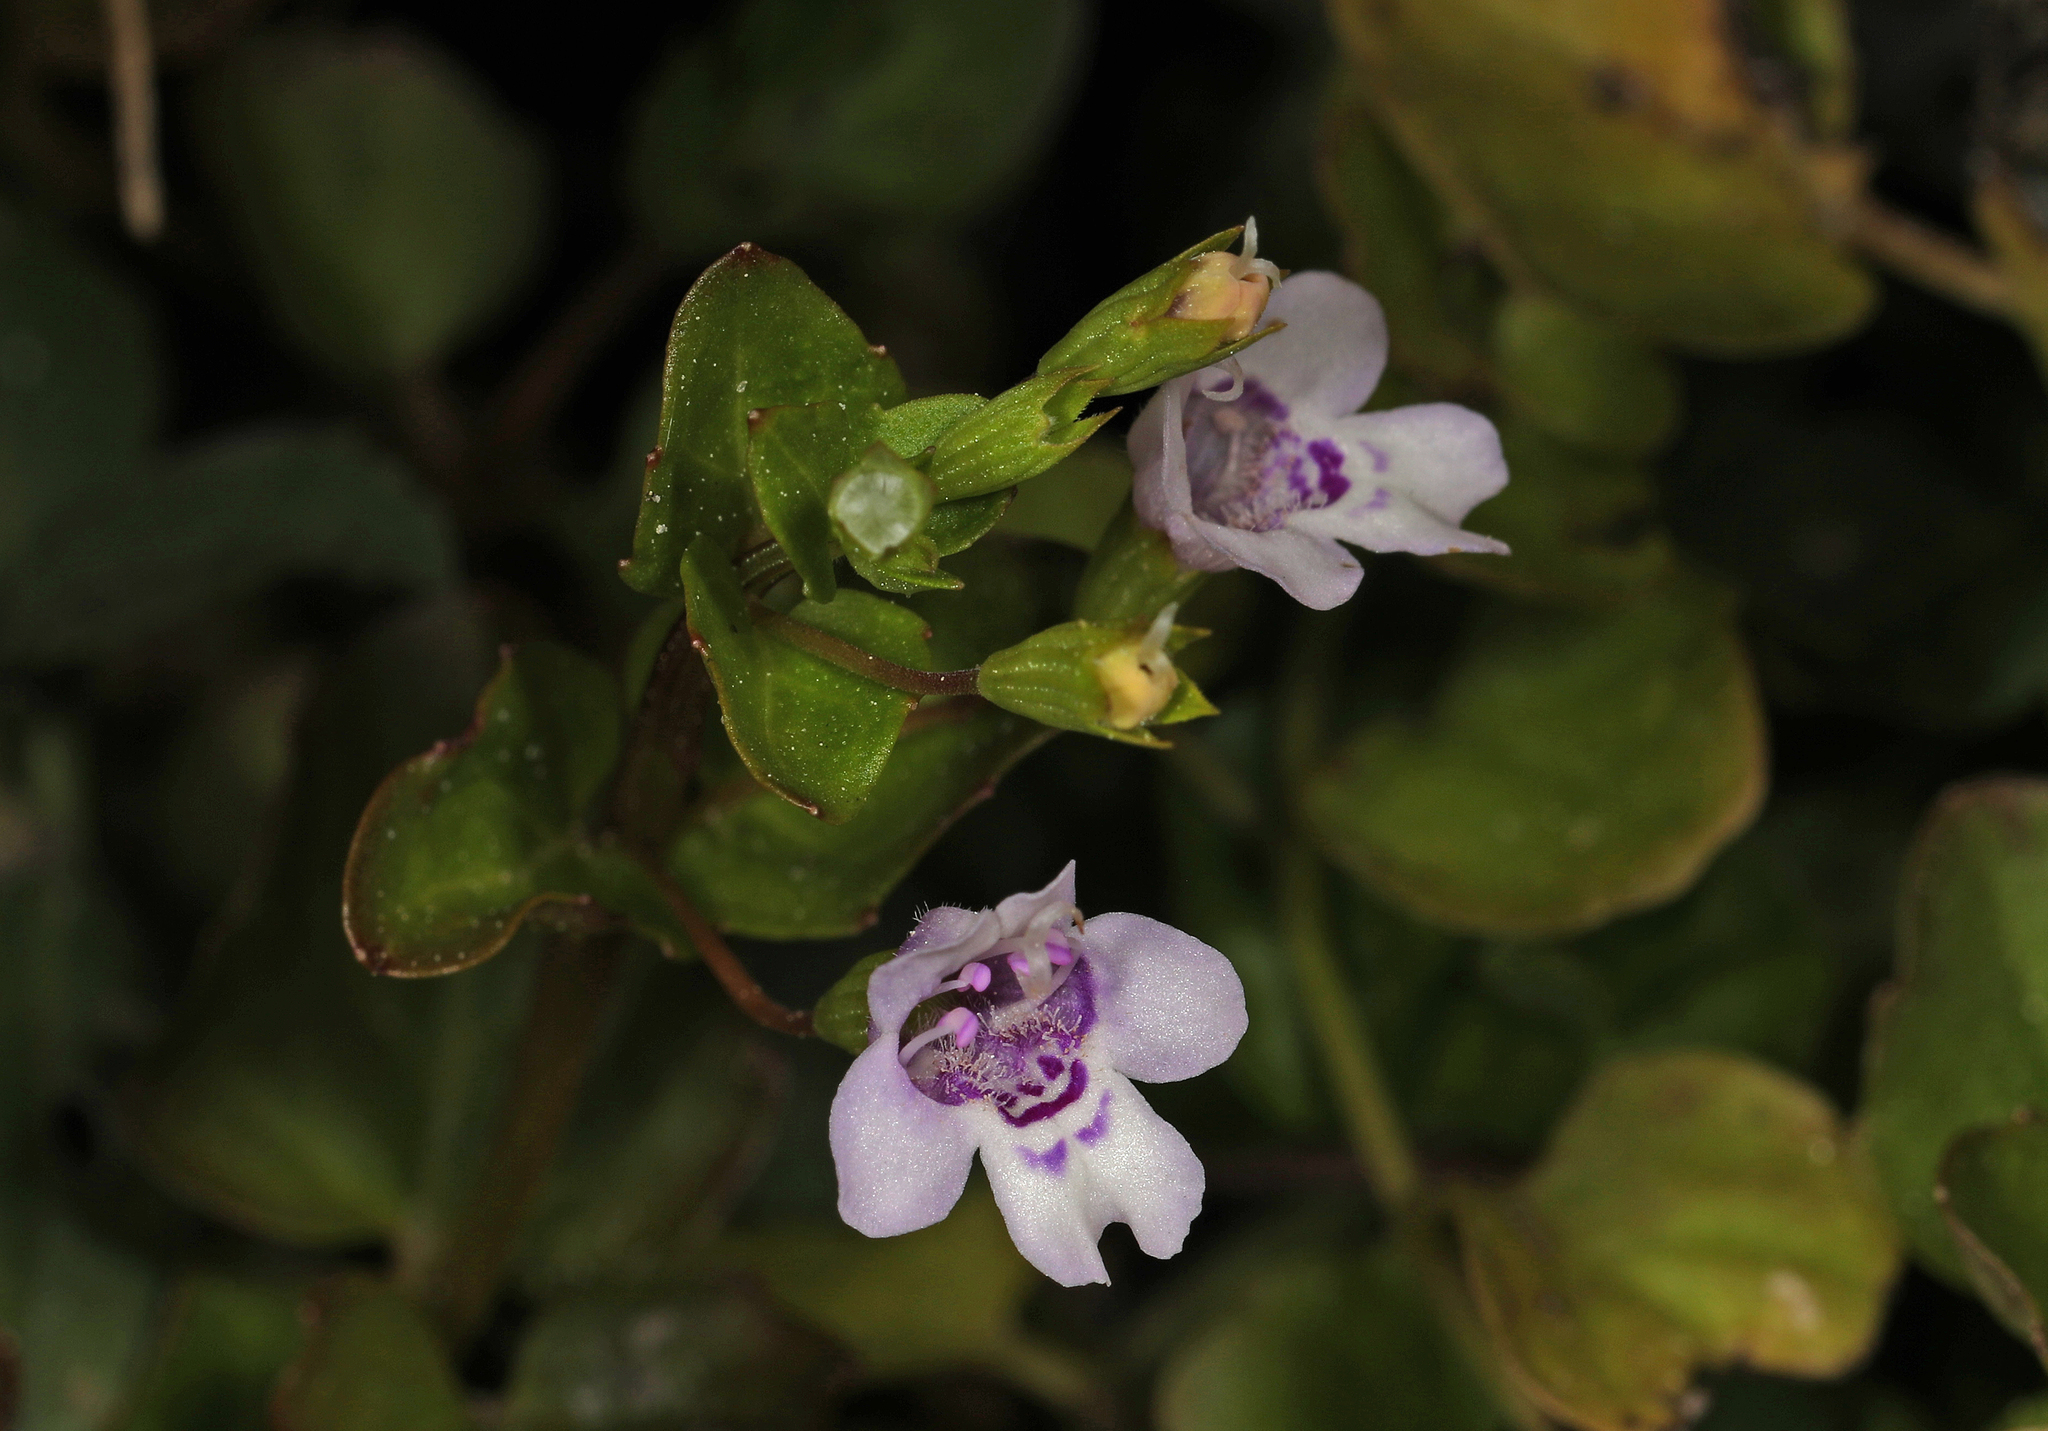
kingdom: Plantae
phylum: Tracheophyta
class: Magnoliopsida
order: Lamiales
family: Lamiaceae
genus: Clinopodium
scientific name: Clinopodium brownei
